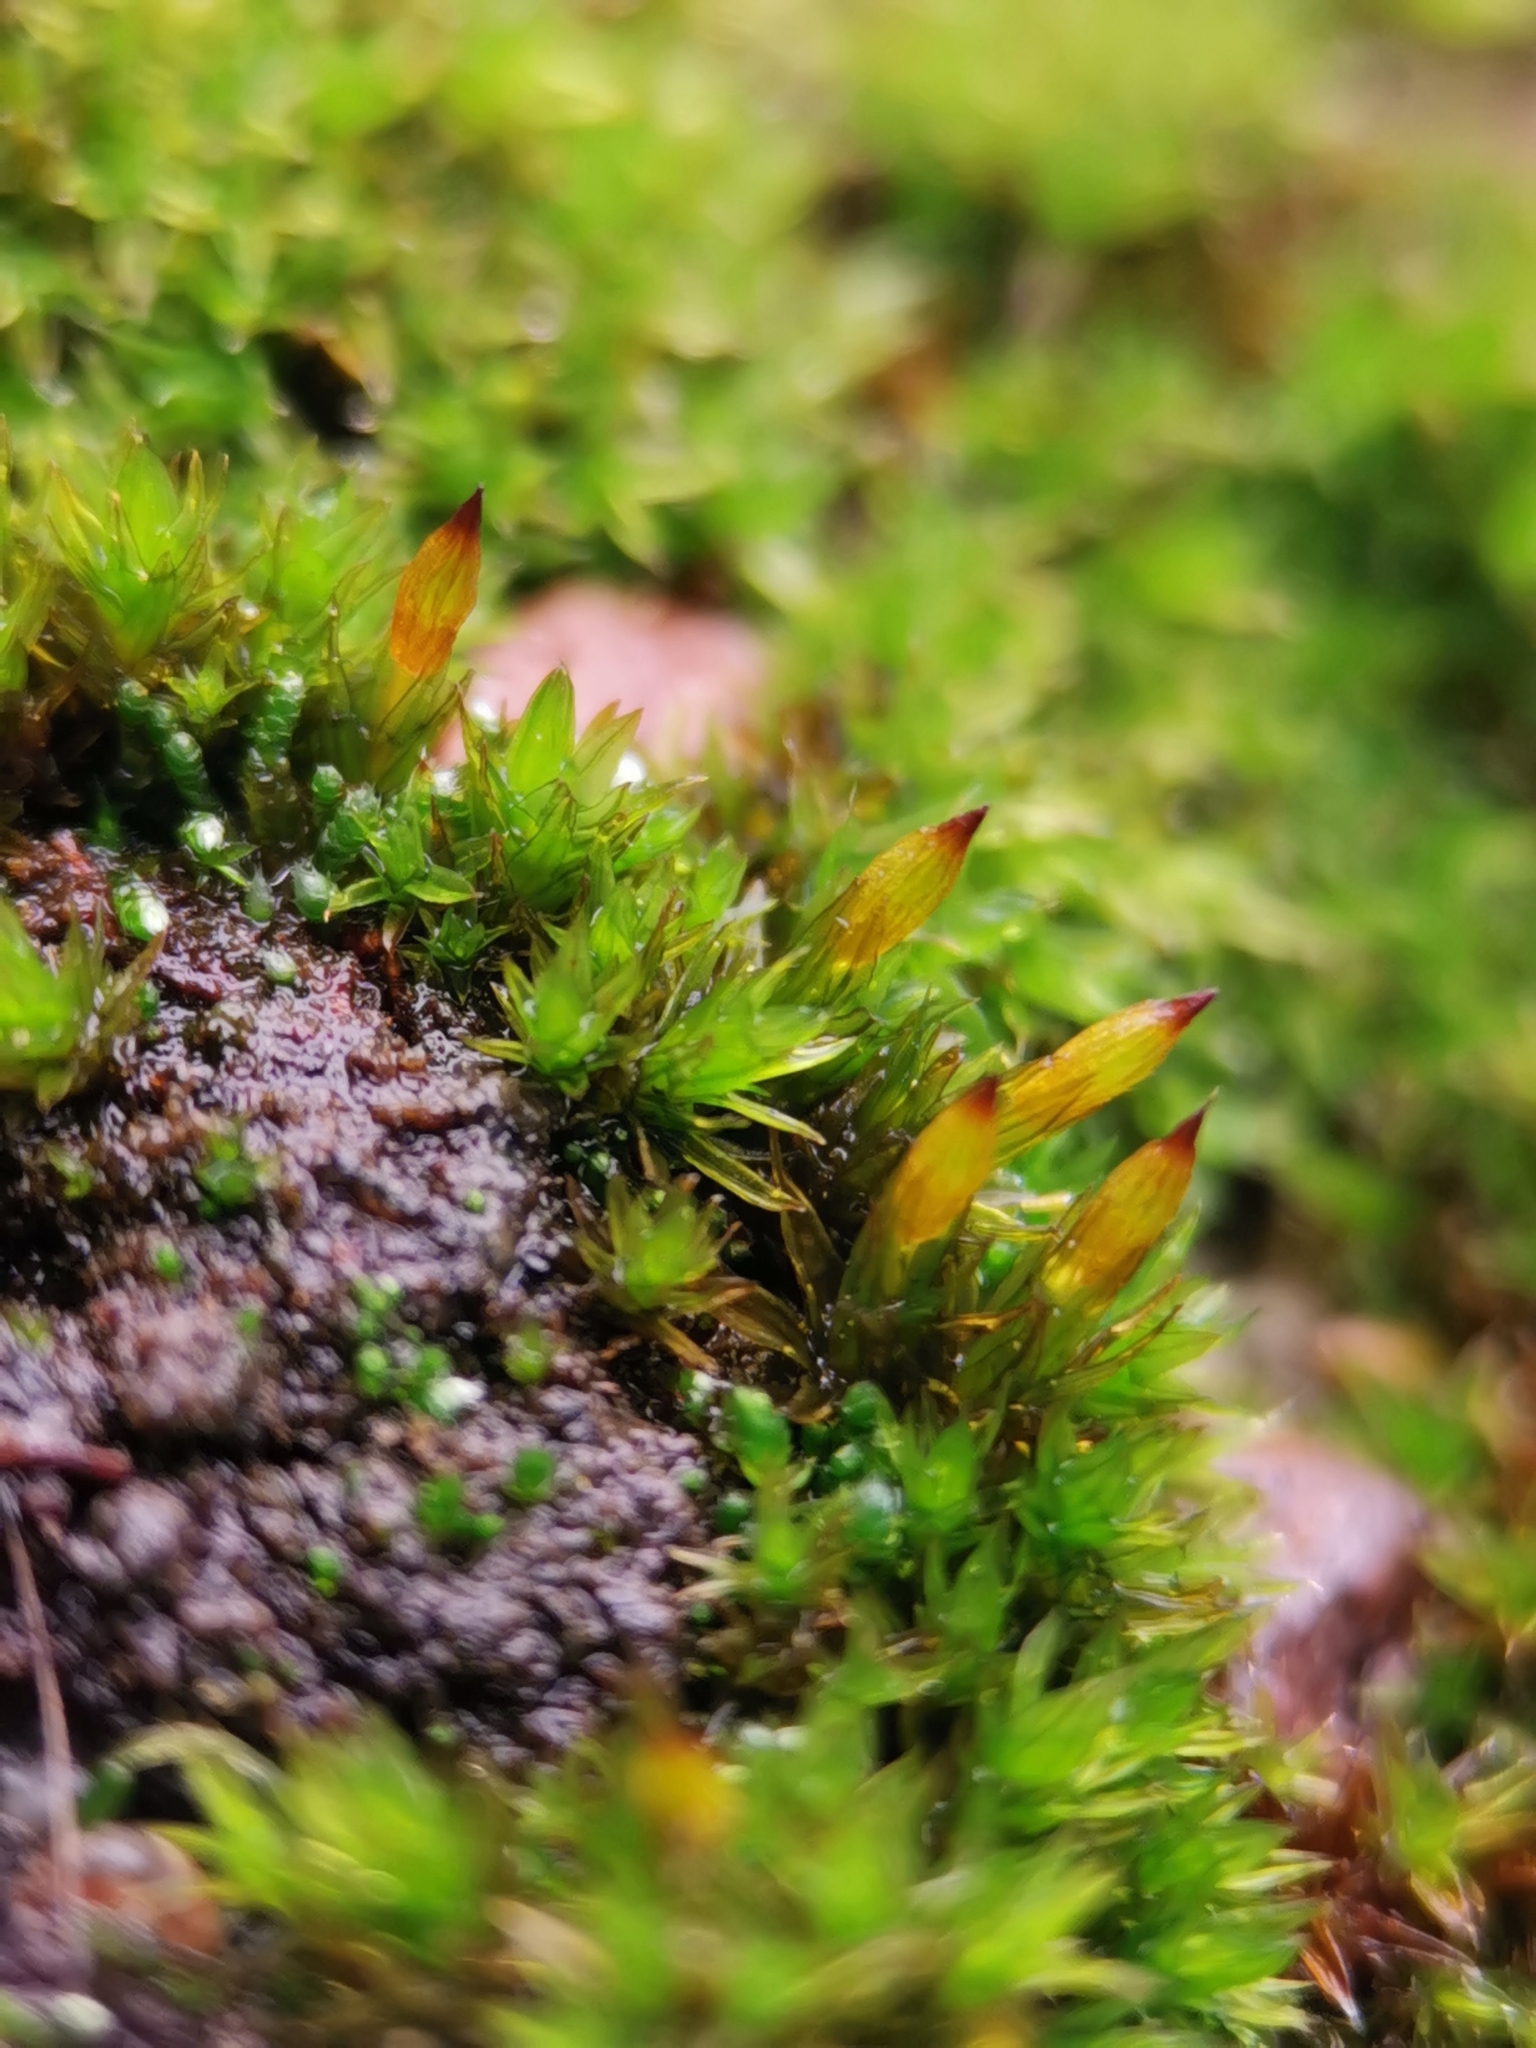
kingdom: Plantae
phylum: Bryophyta
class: Bryopsida
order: Orthotrichales
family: Orthotrichaceae
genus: Orthotrichum
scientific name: Orthotrichum anomalum
